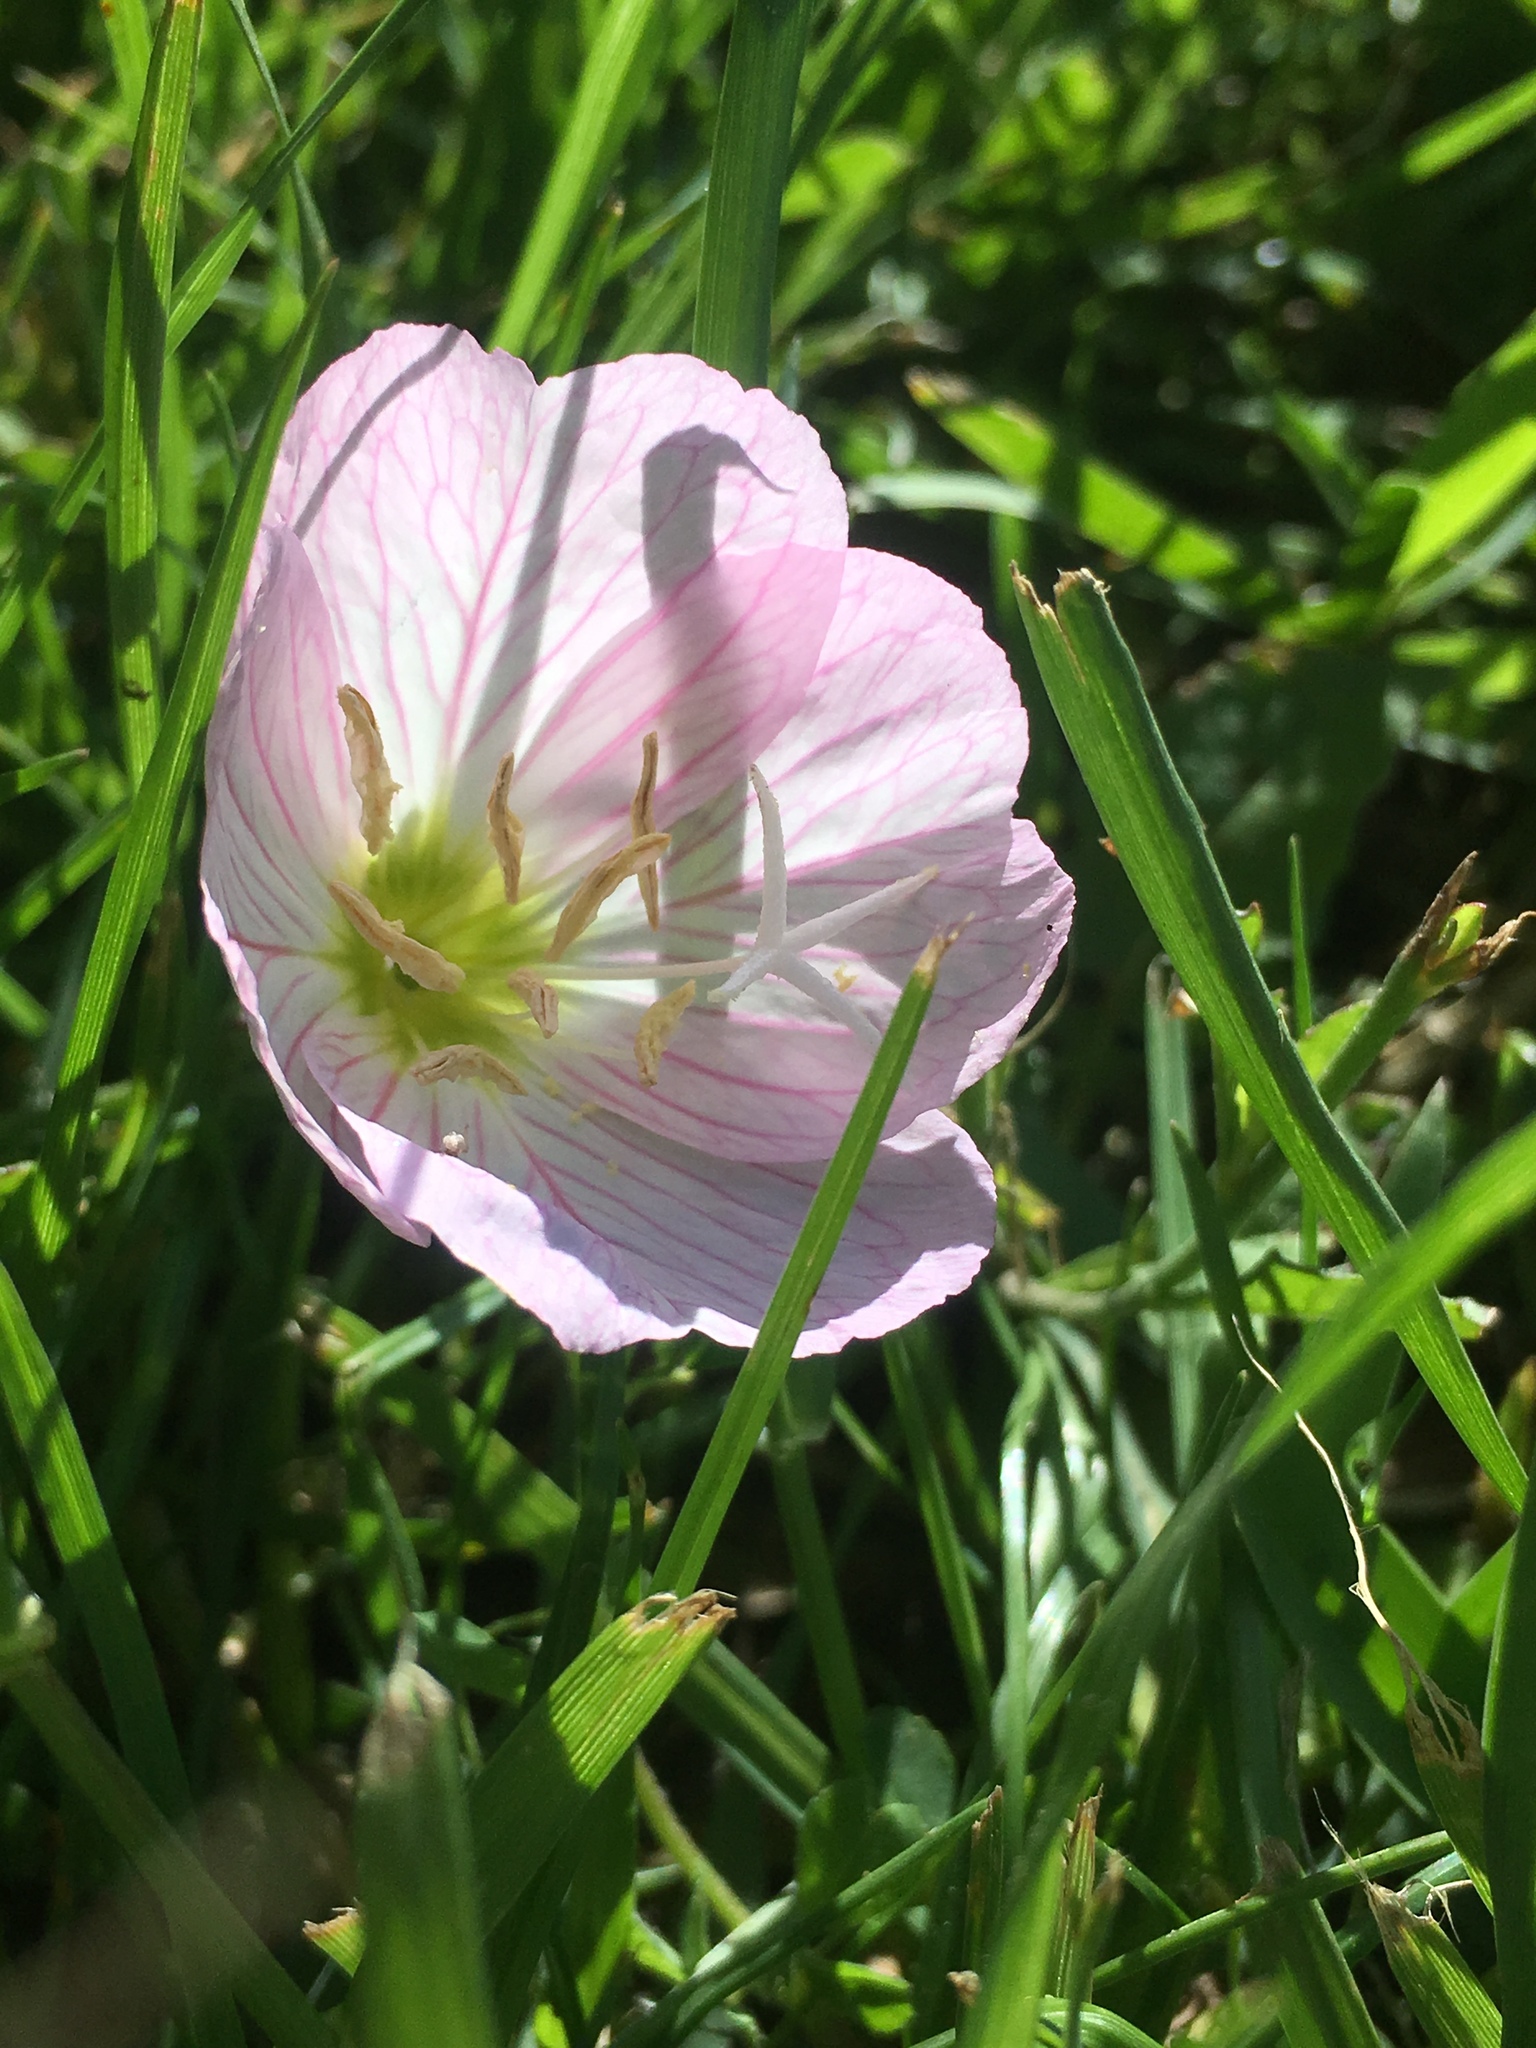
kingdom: Plantae
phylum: Tracheophyta
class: Magnoliopsida
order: Myrtales
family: Onagraceae
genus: Oenothera
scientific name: Oenothera speciosa
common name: White evening-primrose
